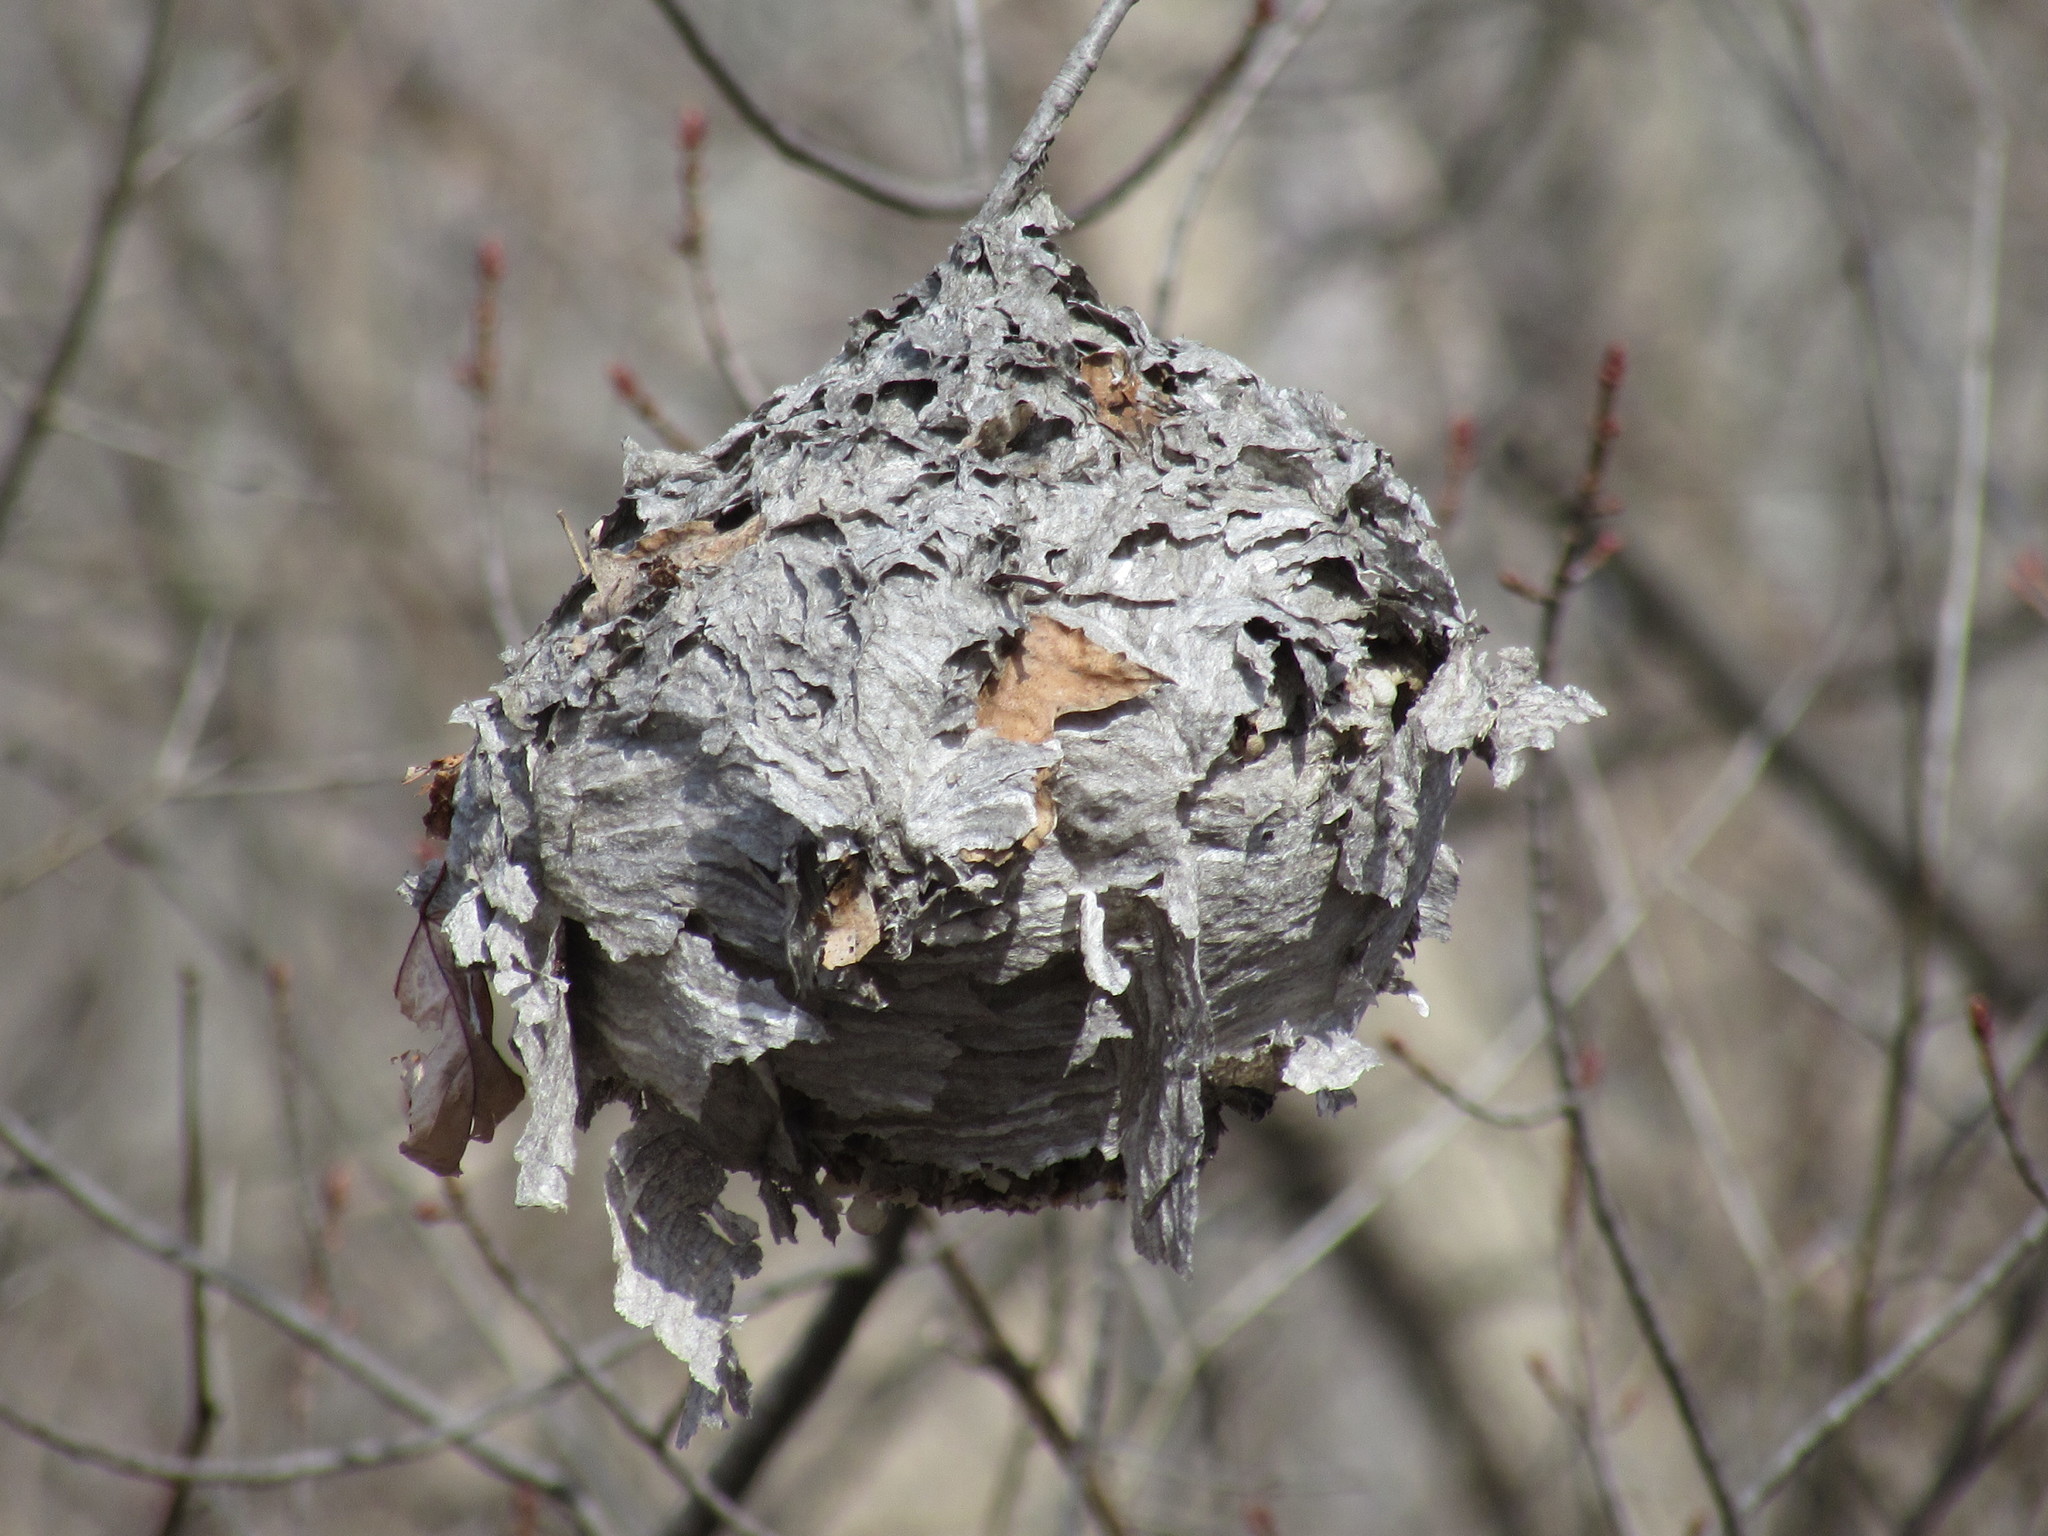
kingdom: Animalia
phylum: Arthropoda
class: Insecta
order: Hymenoptera
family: Vespidae
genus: Dolichovespula
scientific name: Dolichovespula
